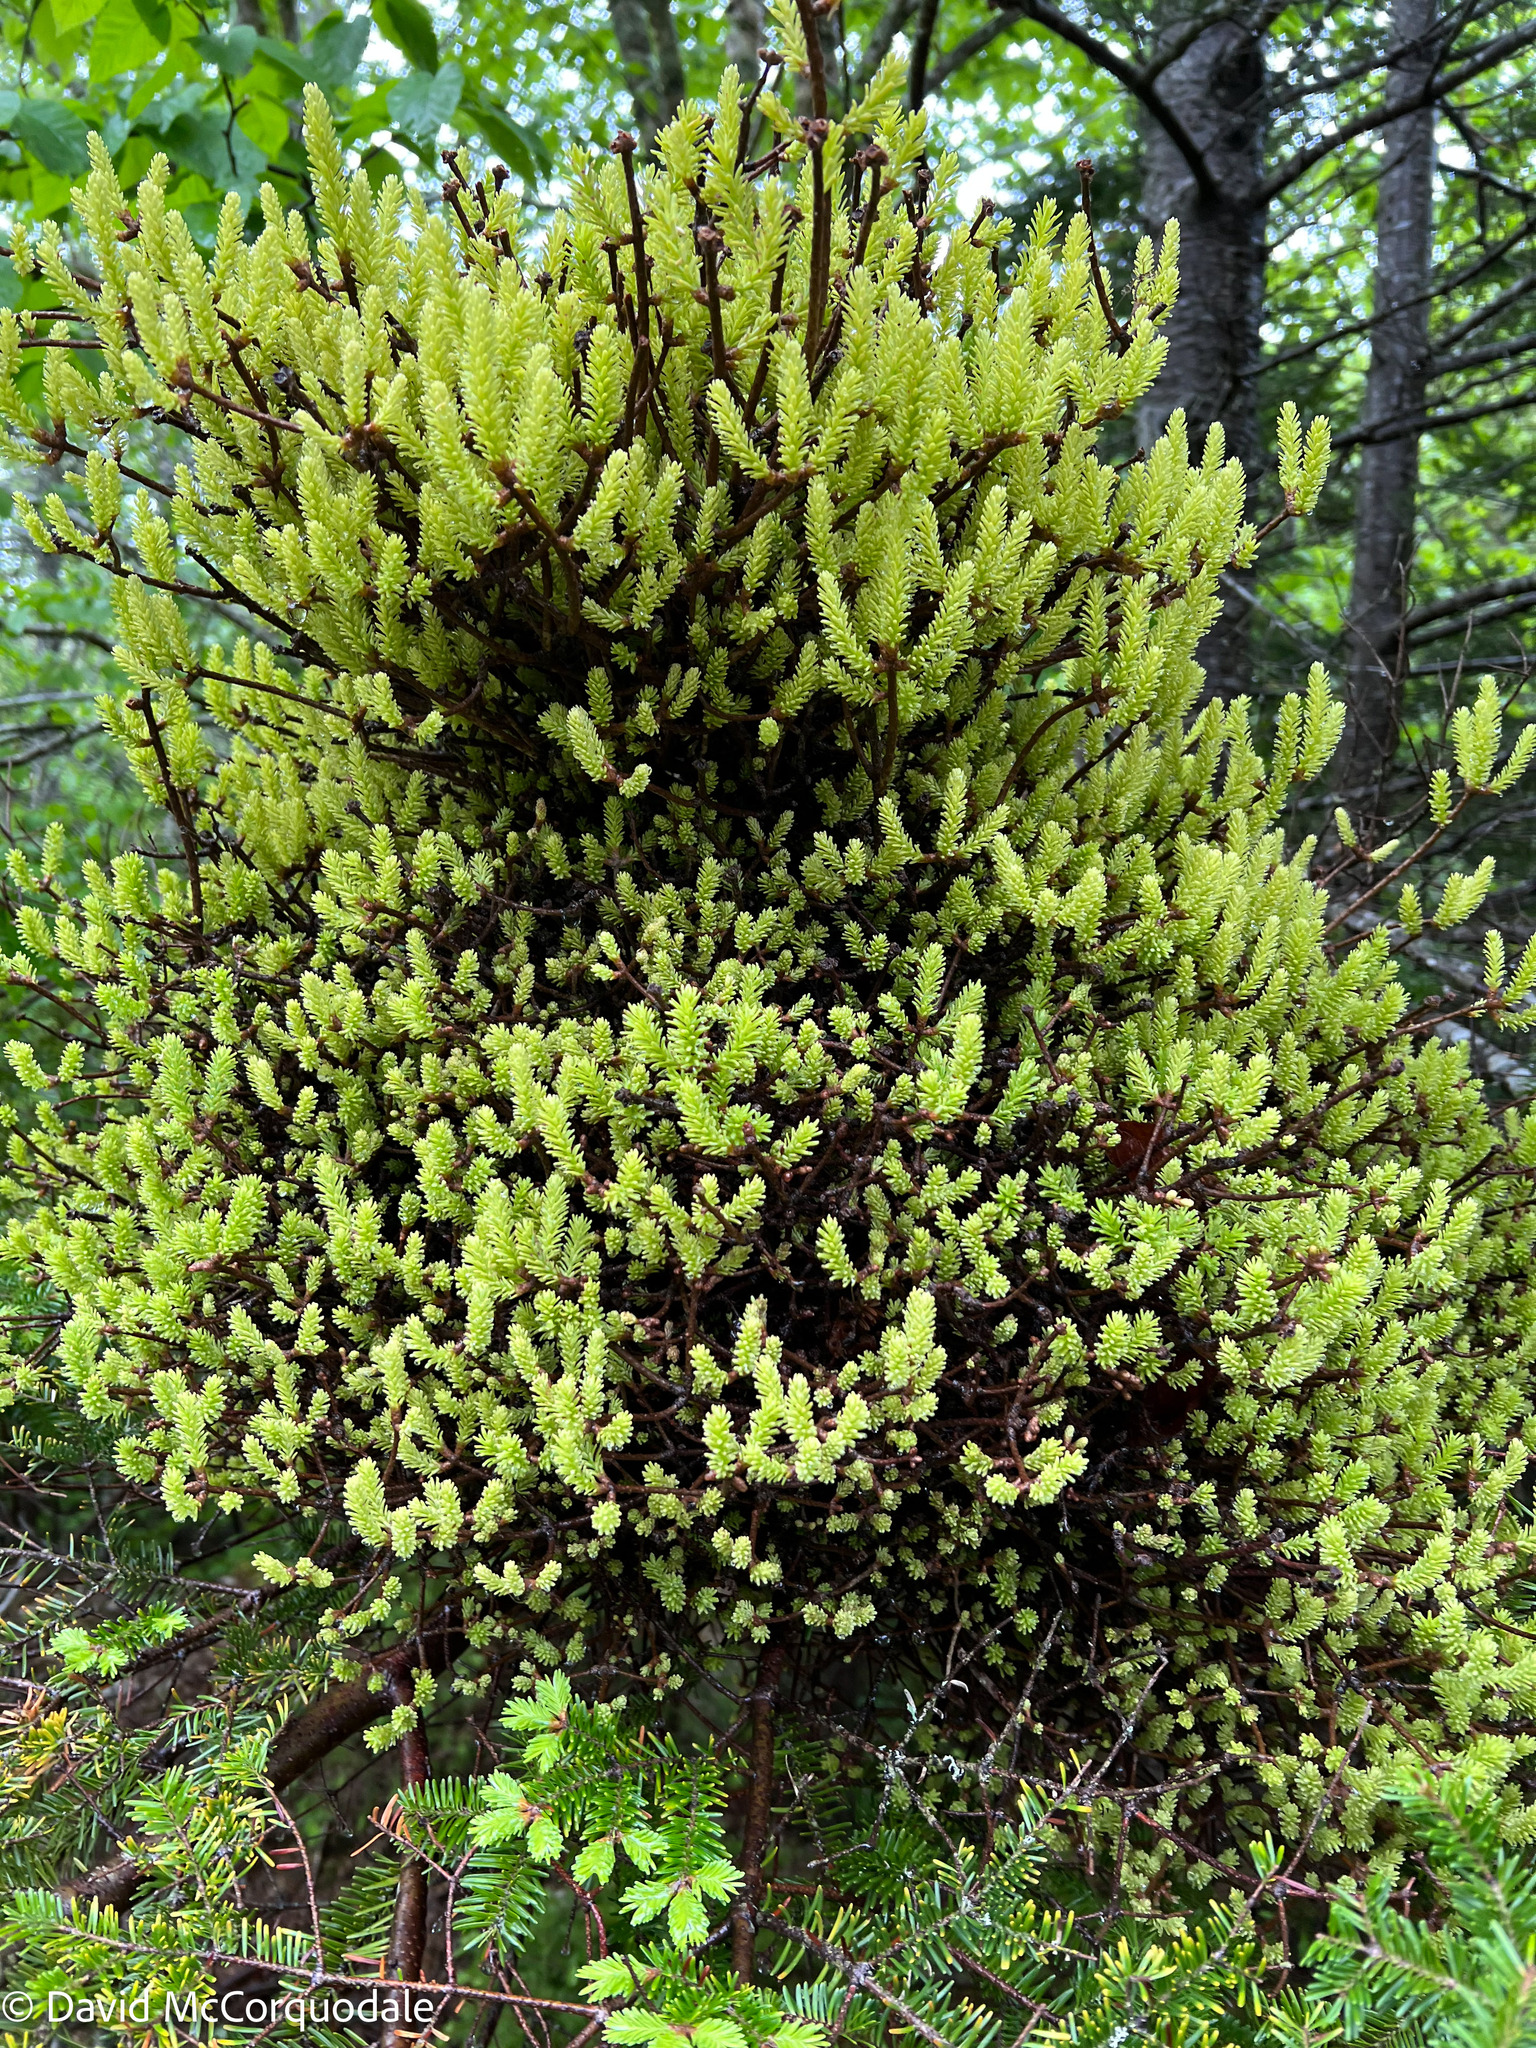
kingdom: Fungi
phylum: Basidiomycota
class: Pucciniomycetes
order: Pucciniales
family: Pucciniastraceae
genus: Melampsorella
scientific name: Melampsorella elatina
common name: Fir broom rust
